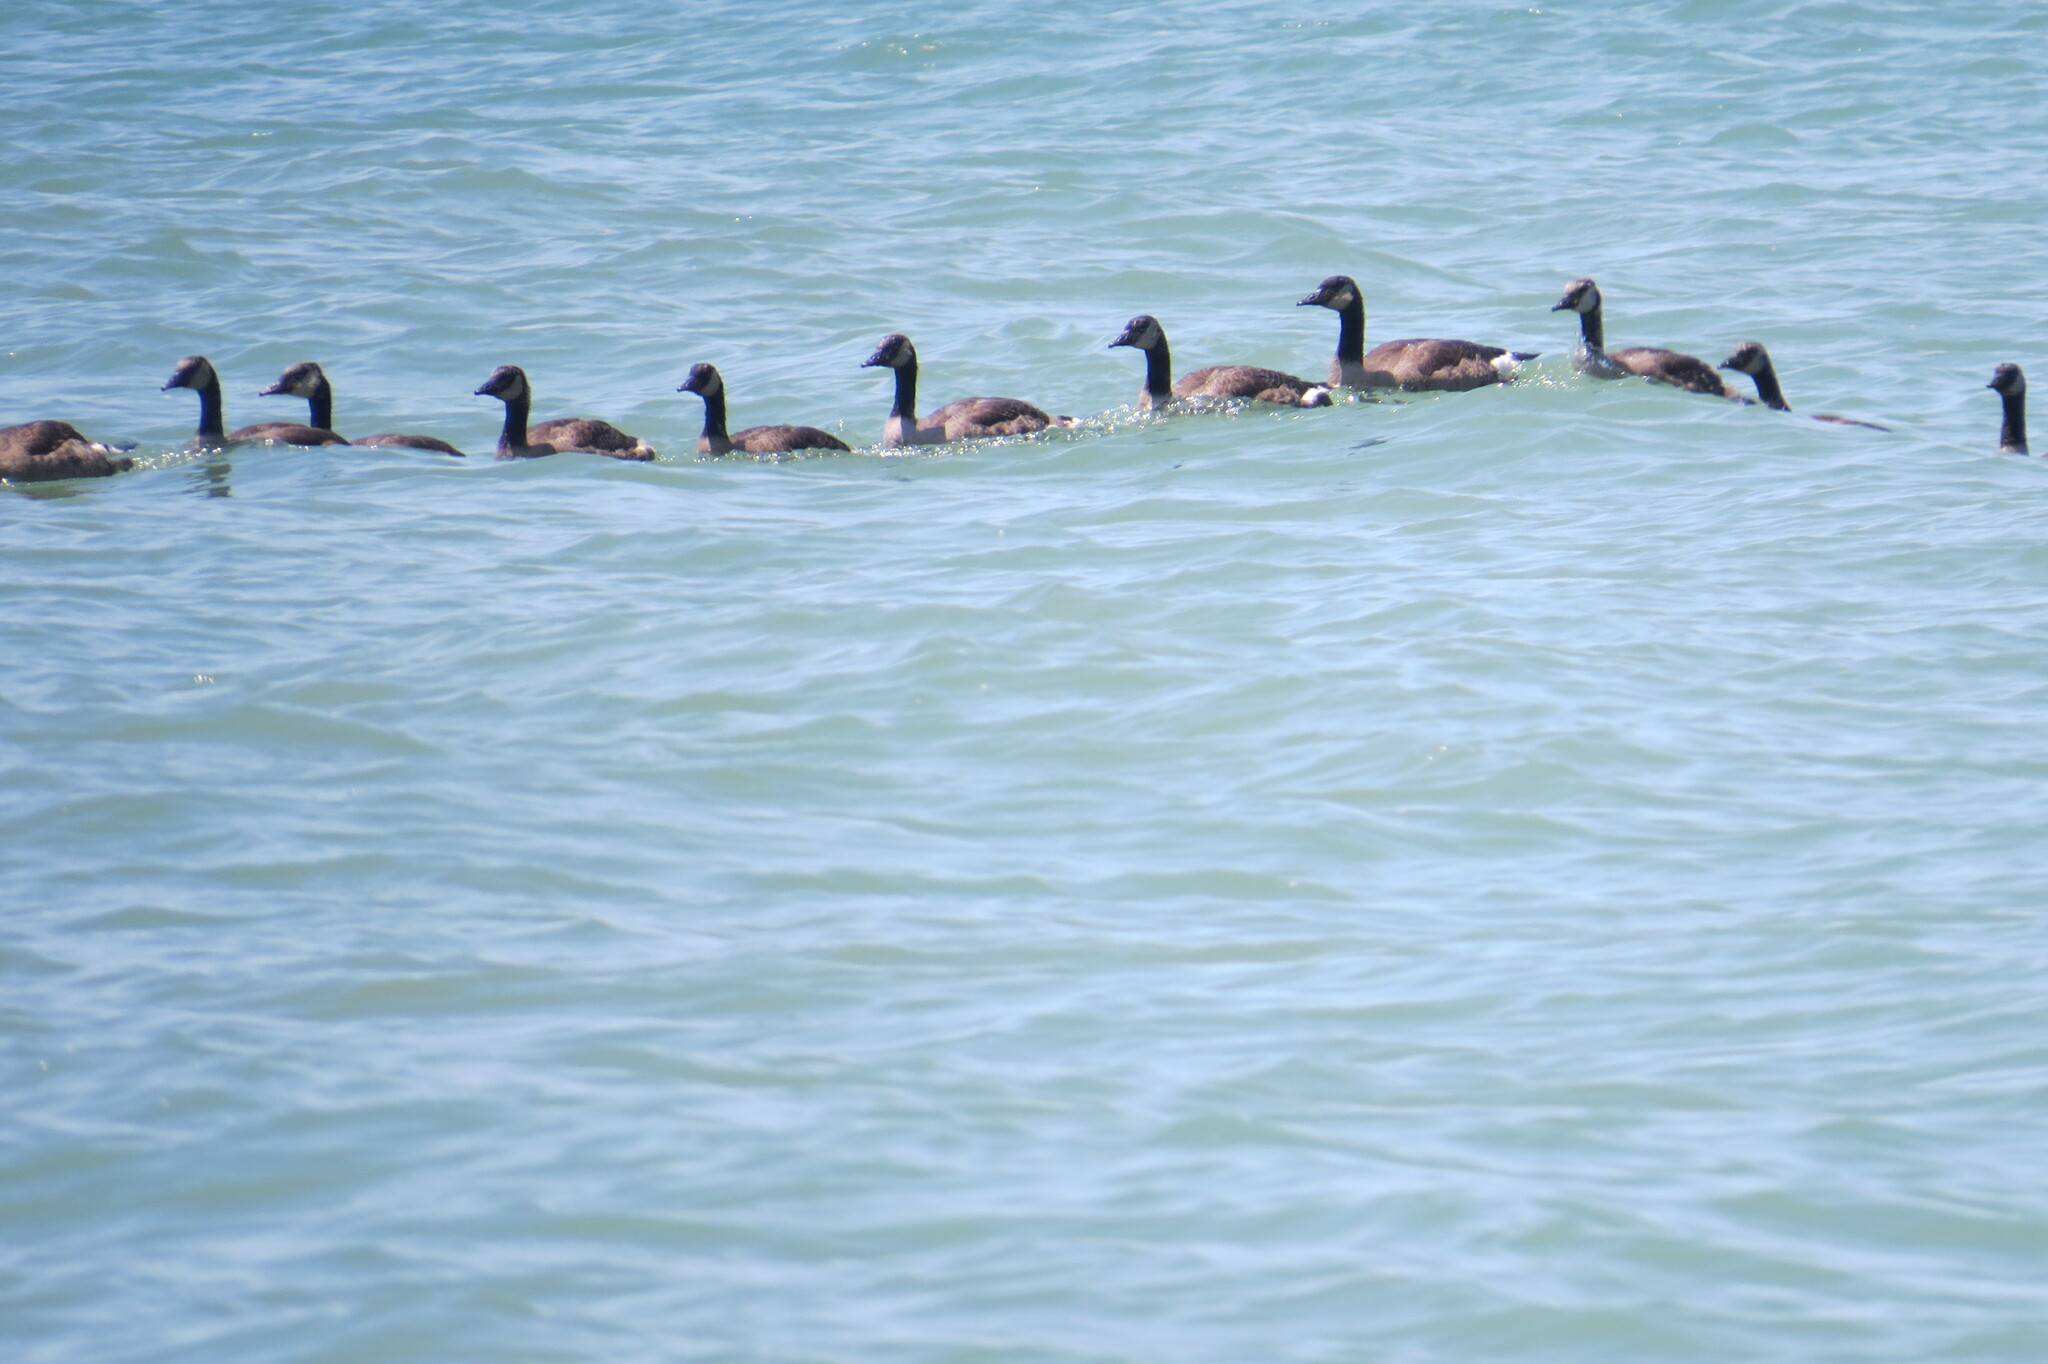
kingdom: Animalia
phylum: Chordata
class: Aves
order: Anseriformes
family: Anatidae
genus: Branta
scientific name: Branta canadensis
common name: Canada goose
